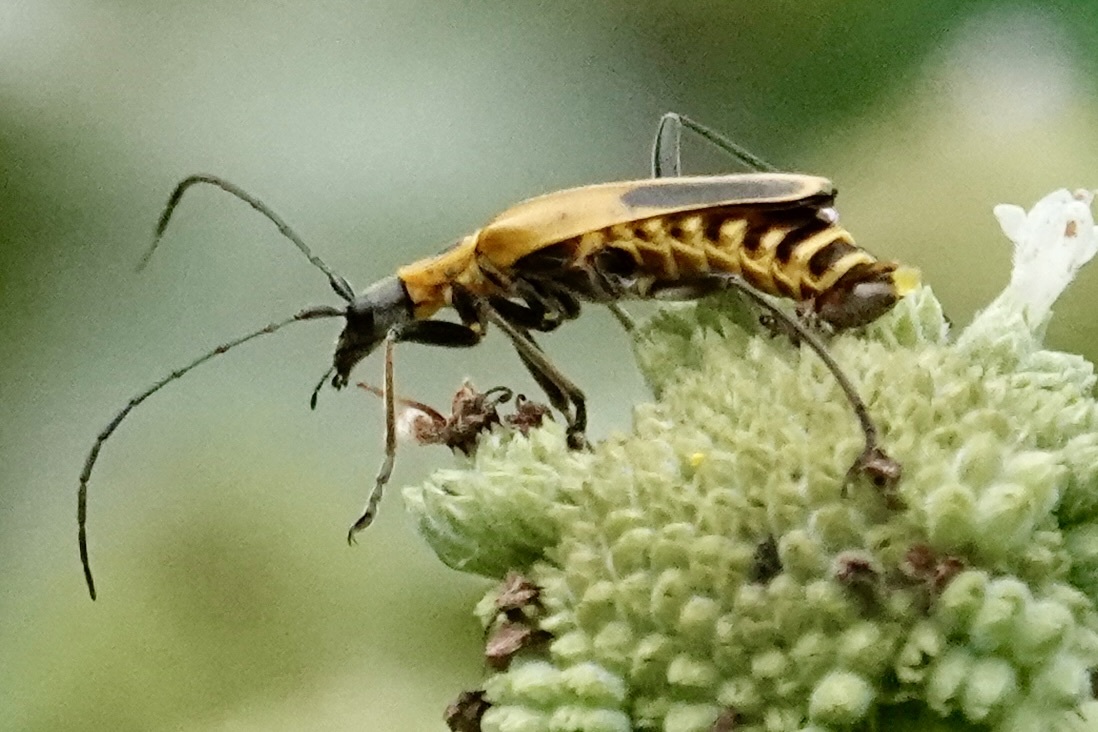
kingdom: Animalia
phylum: Arthropoda
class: Insecta
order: Coleoptera
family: Cantharidae
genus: Chauliognathus
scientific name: Chauliognathus pensylvanicus
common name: Goldenrod soldier beetle
